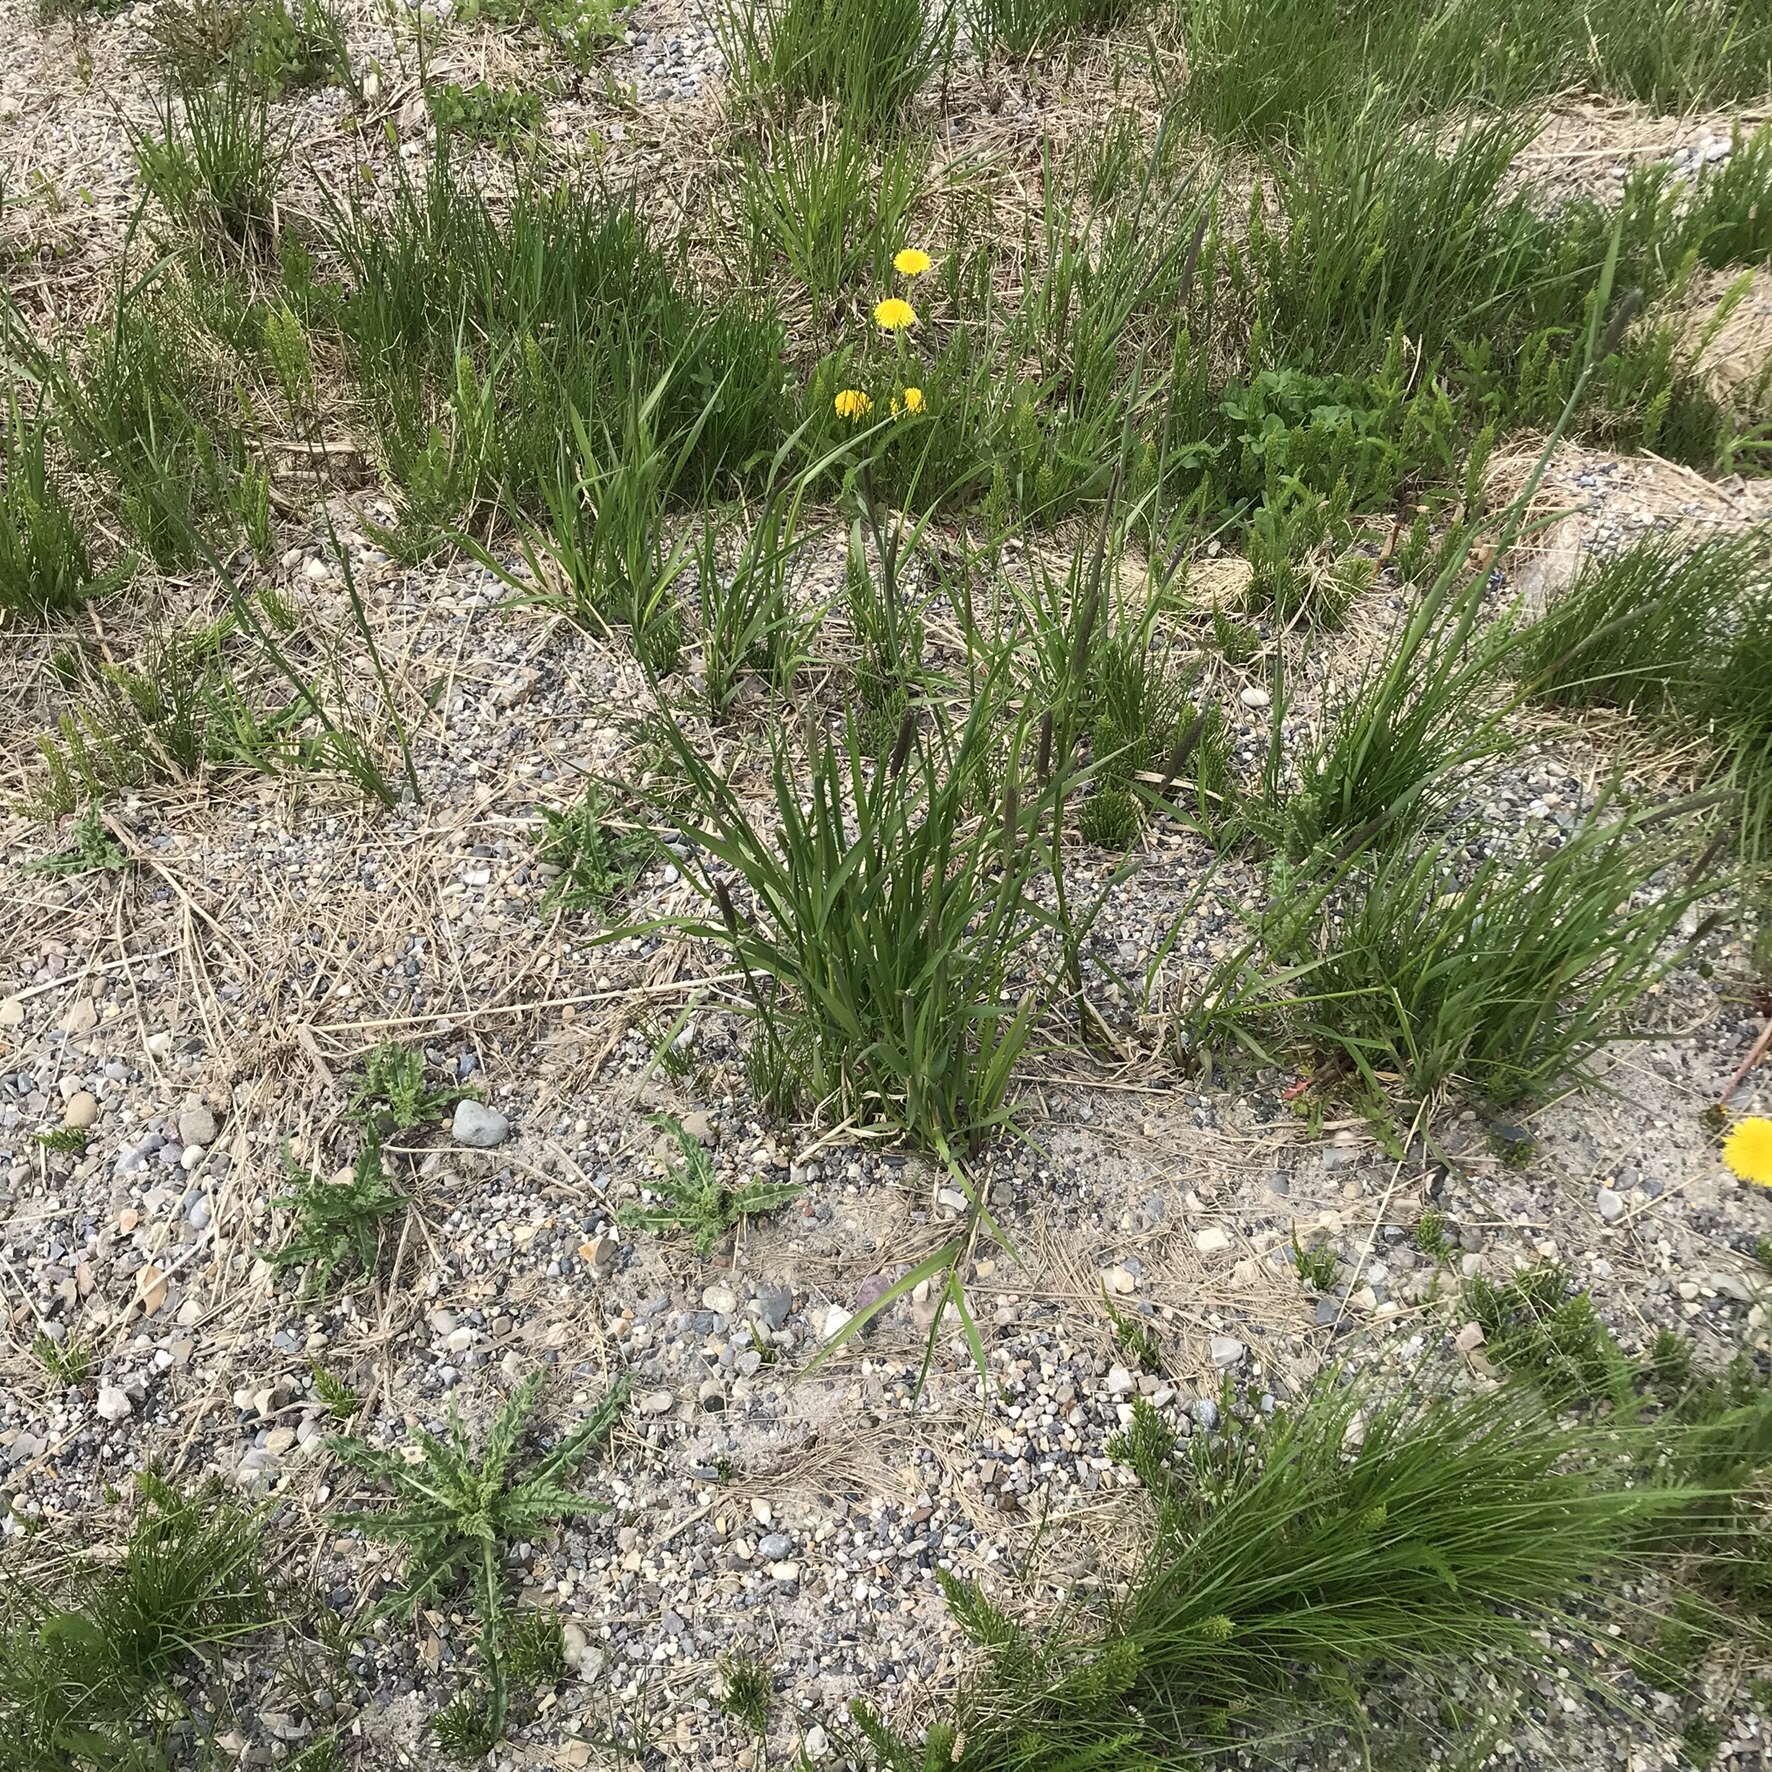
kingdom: Plantae
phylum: Tracheophyta
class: Liliopsida
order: Poales
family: Poaceae
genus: Alopecurus
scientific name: Alopecurus pratensis
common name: Meadow foxtail
